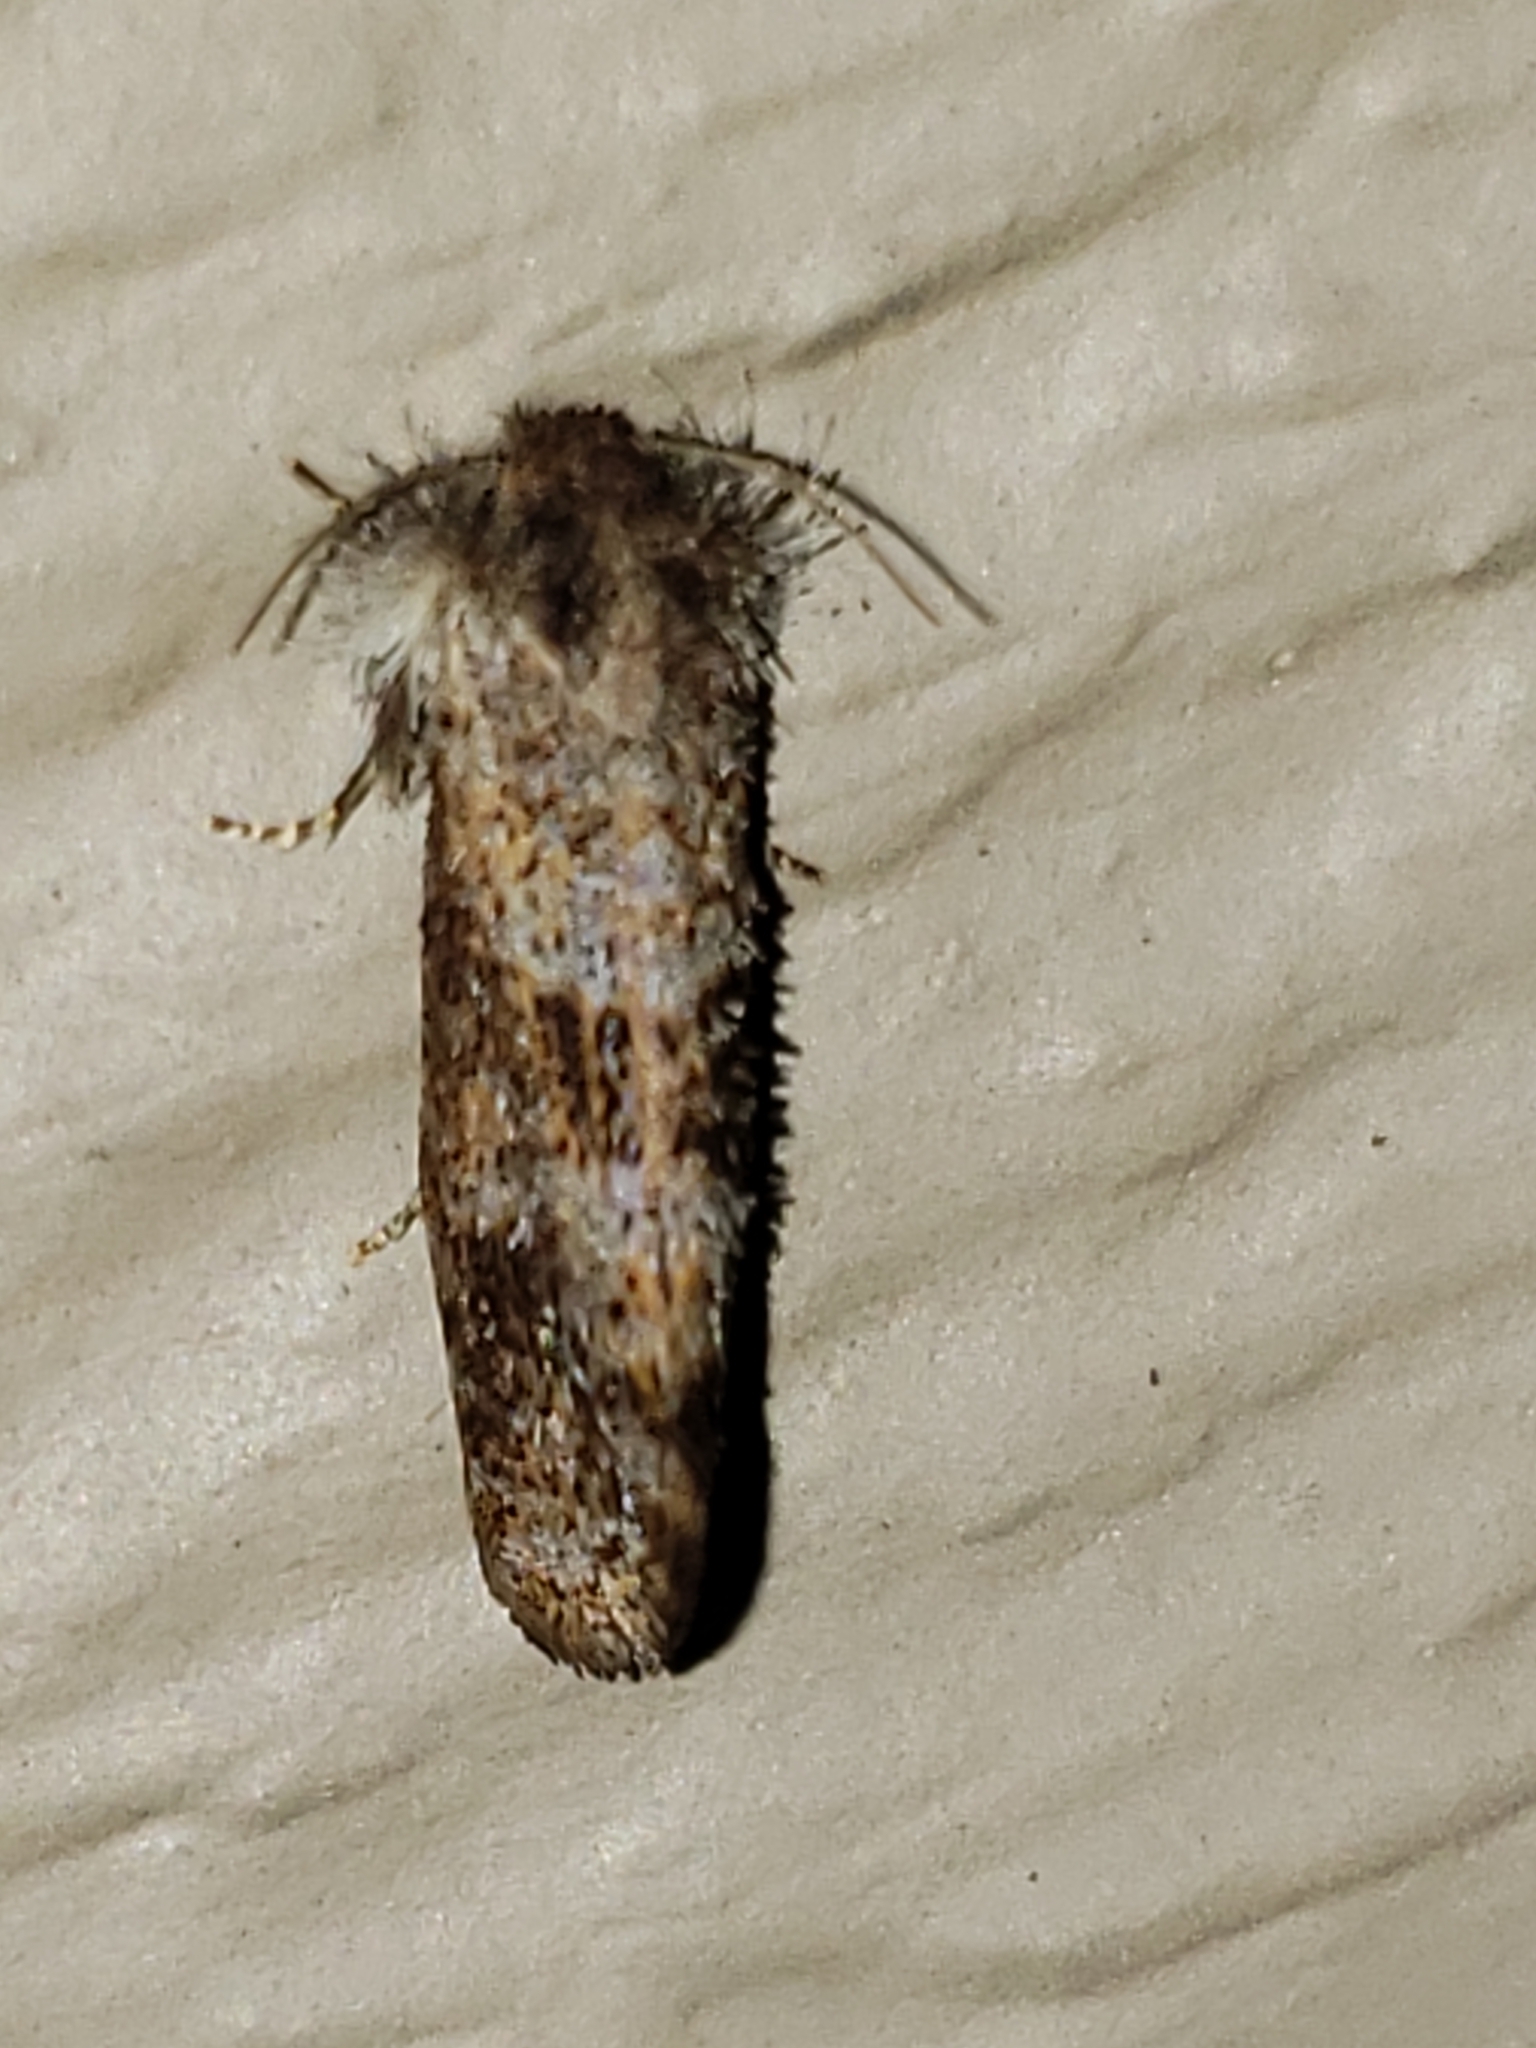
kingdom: Animalia
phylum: Arthropoda
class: Insecta
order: Lepidoptera
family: Tineidae
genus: Acrolophus
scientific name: Acrolophus panamae
